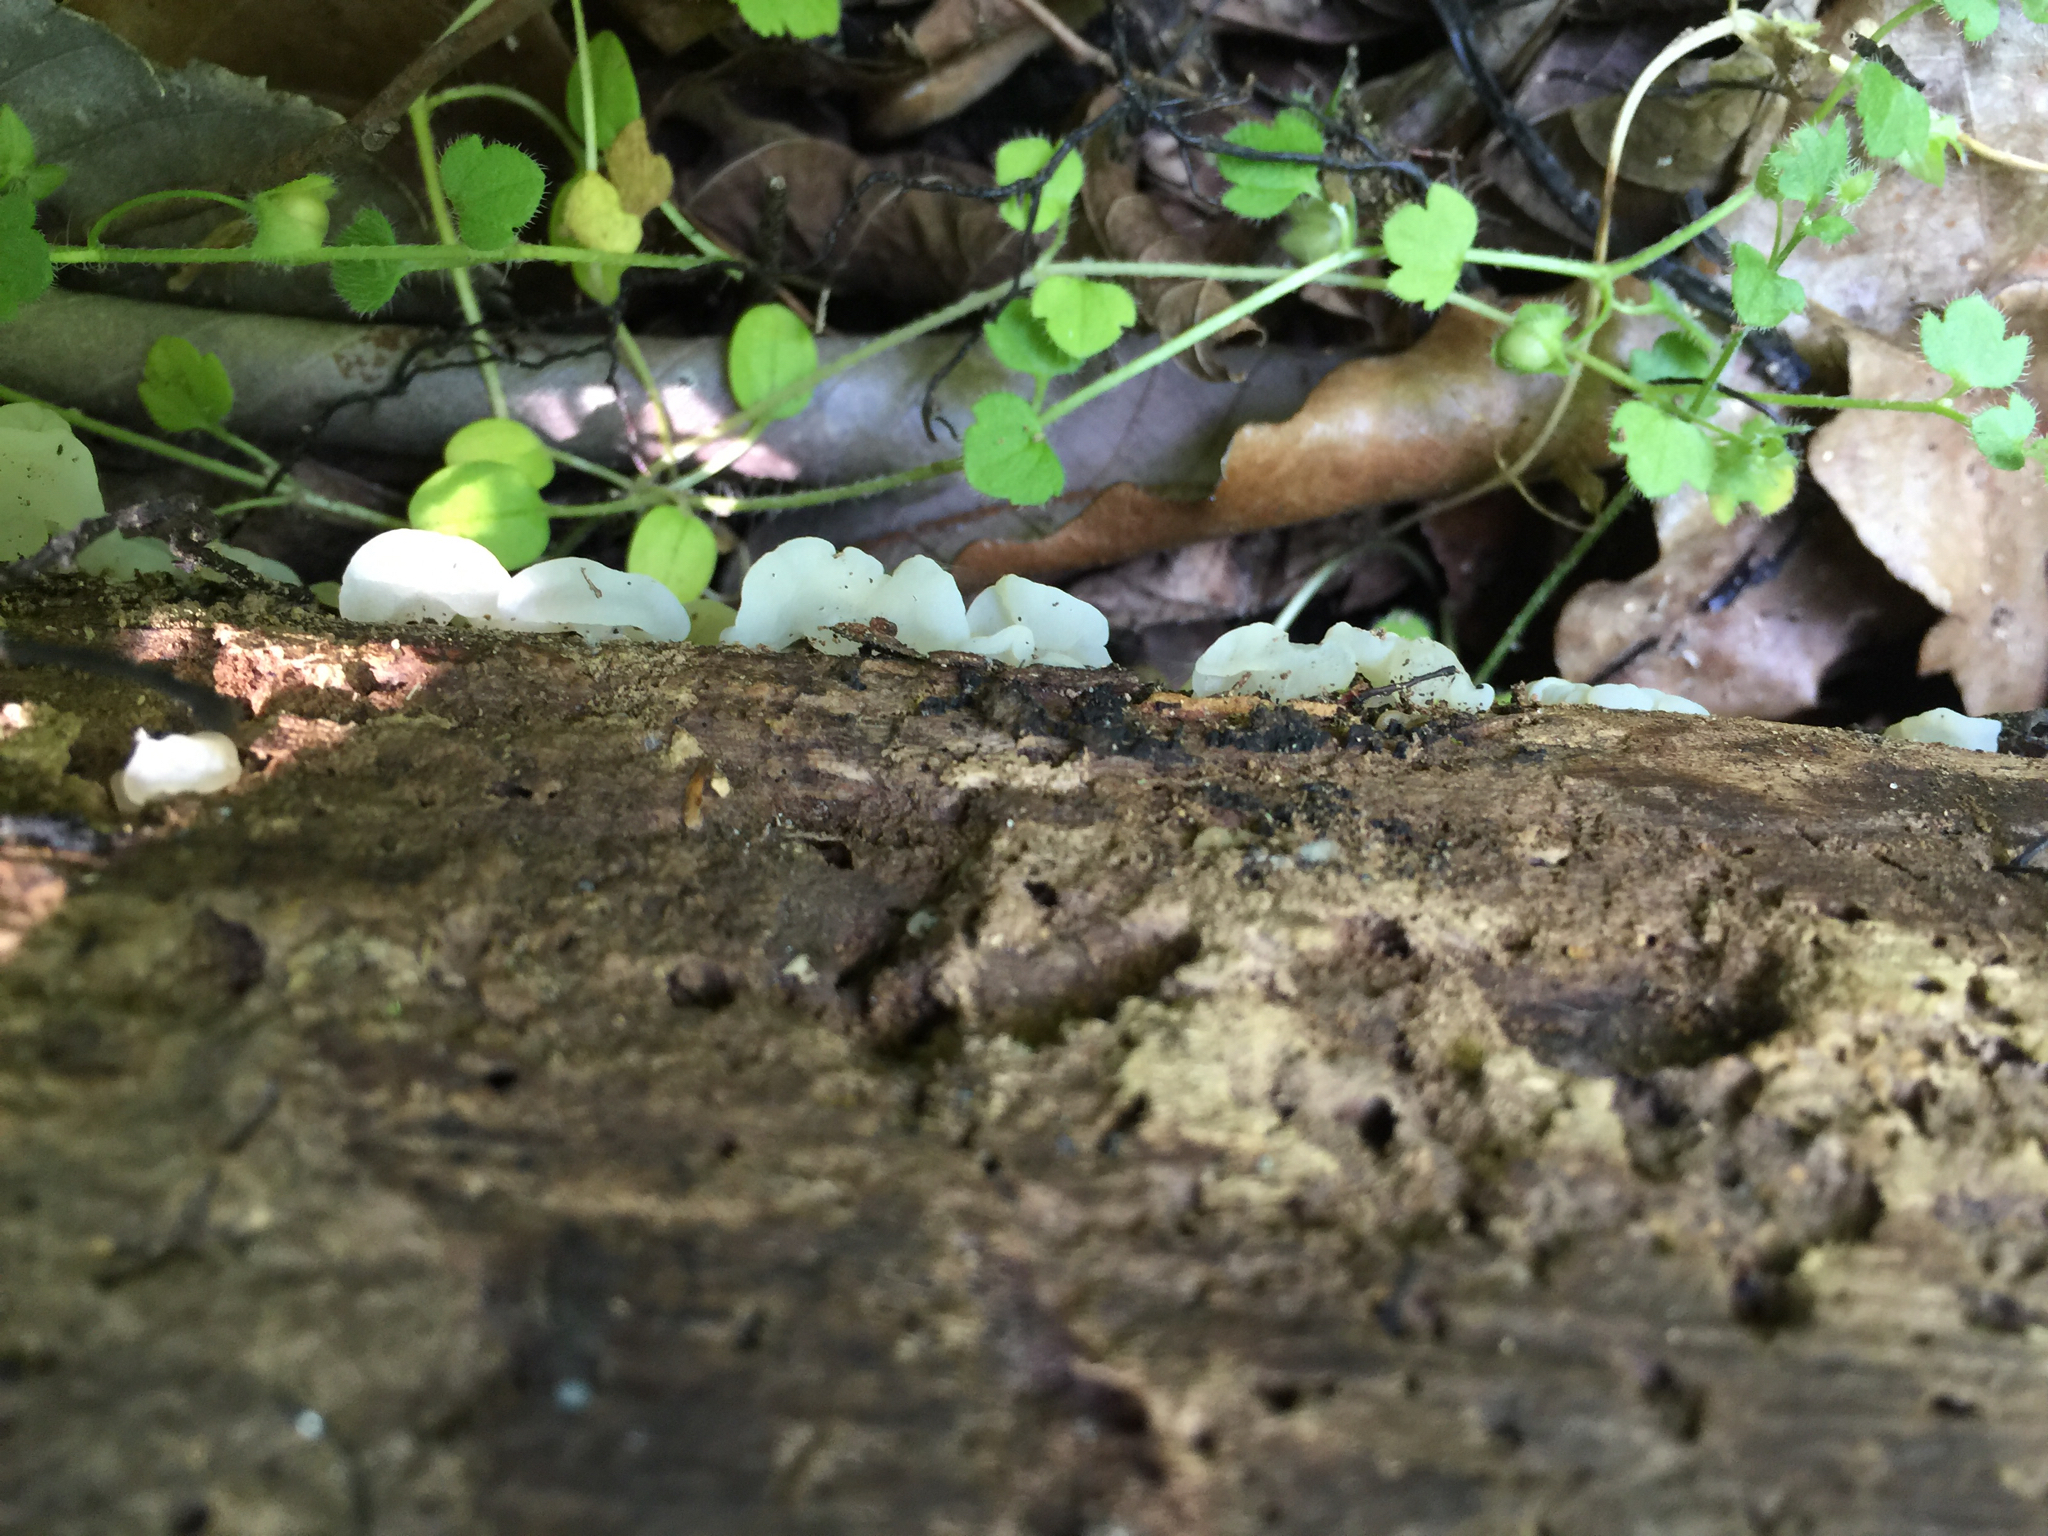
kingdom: Fungi
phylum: Basidiomycota
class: Agaricomycetes
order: Auriculariales
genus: Ductifera
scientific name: Ductifera pululahuana
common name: White jelly fungus
